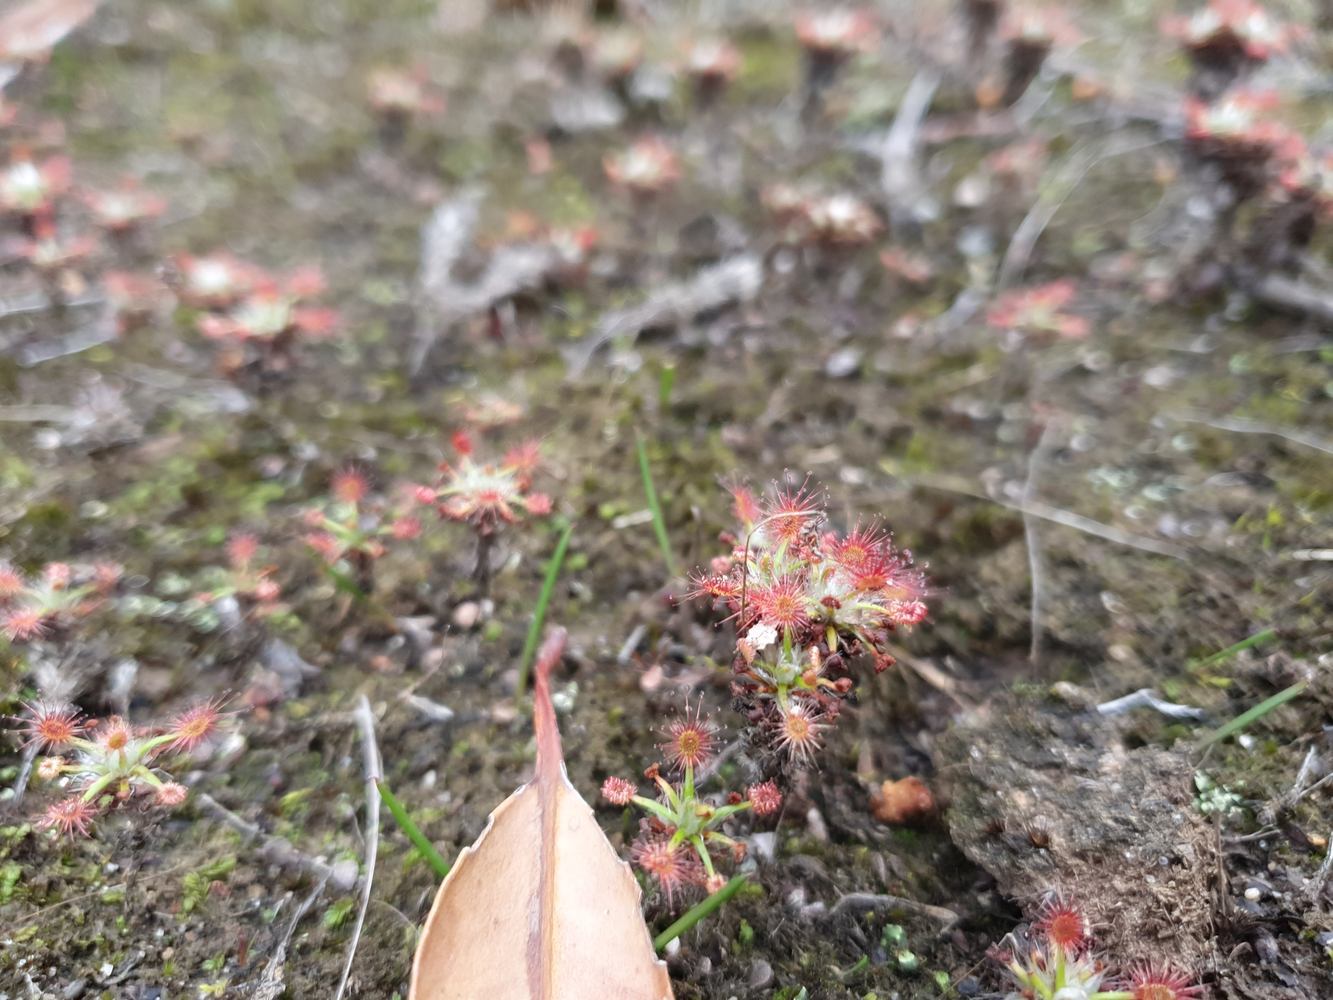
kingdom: Plantae
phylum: Tracheophyta
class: Magnoliopsida
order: Caryophyllales
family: Droseraceae
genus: Drosera
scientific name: Drosera verrucata
